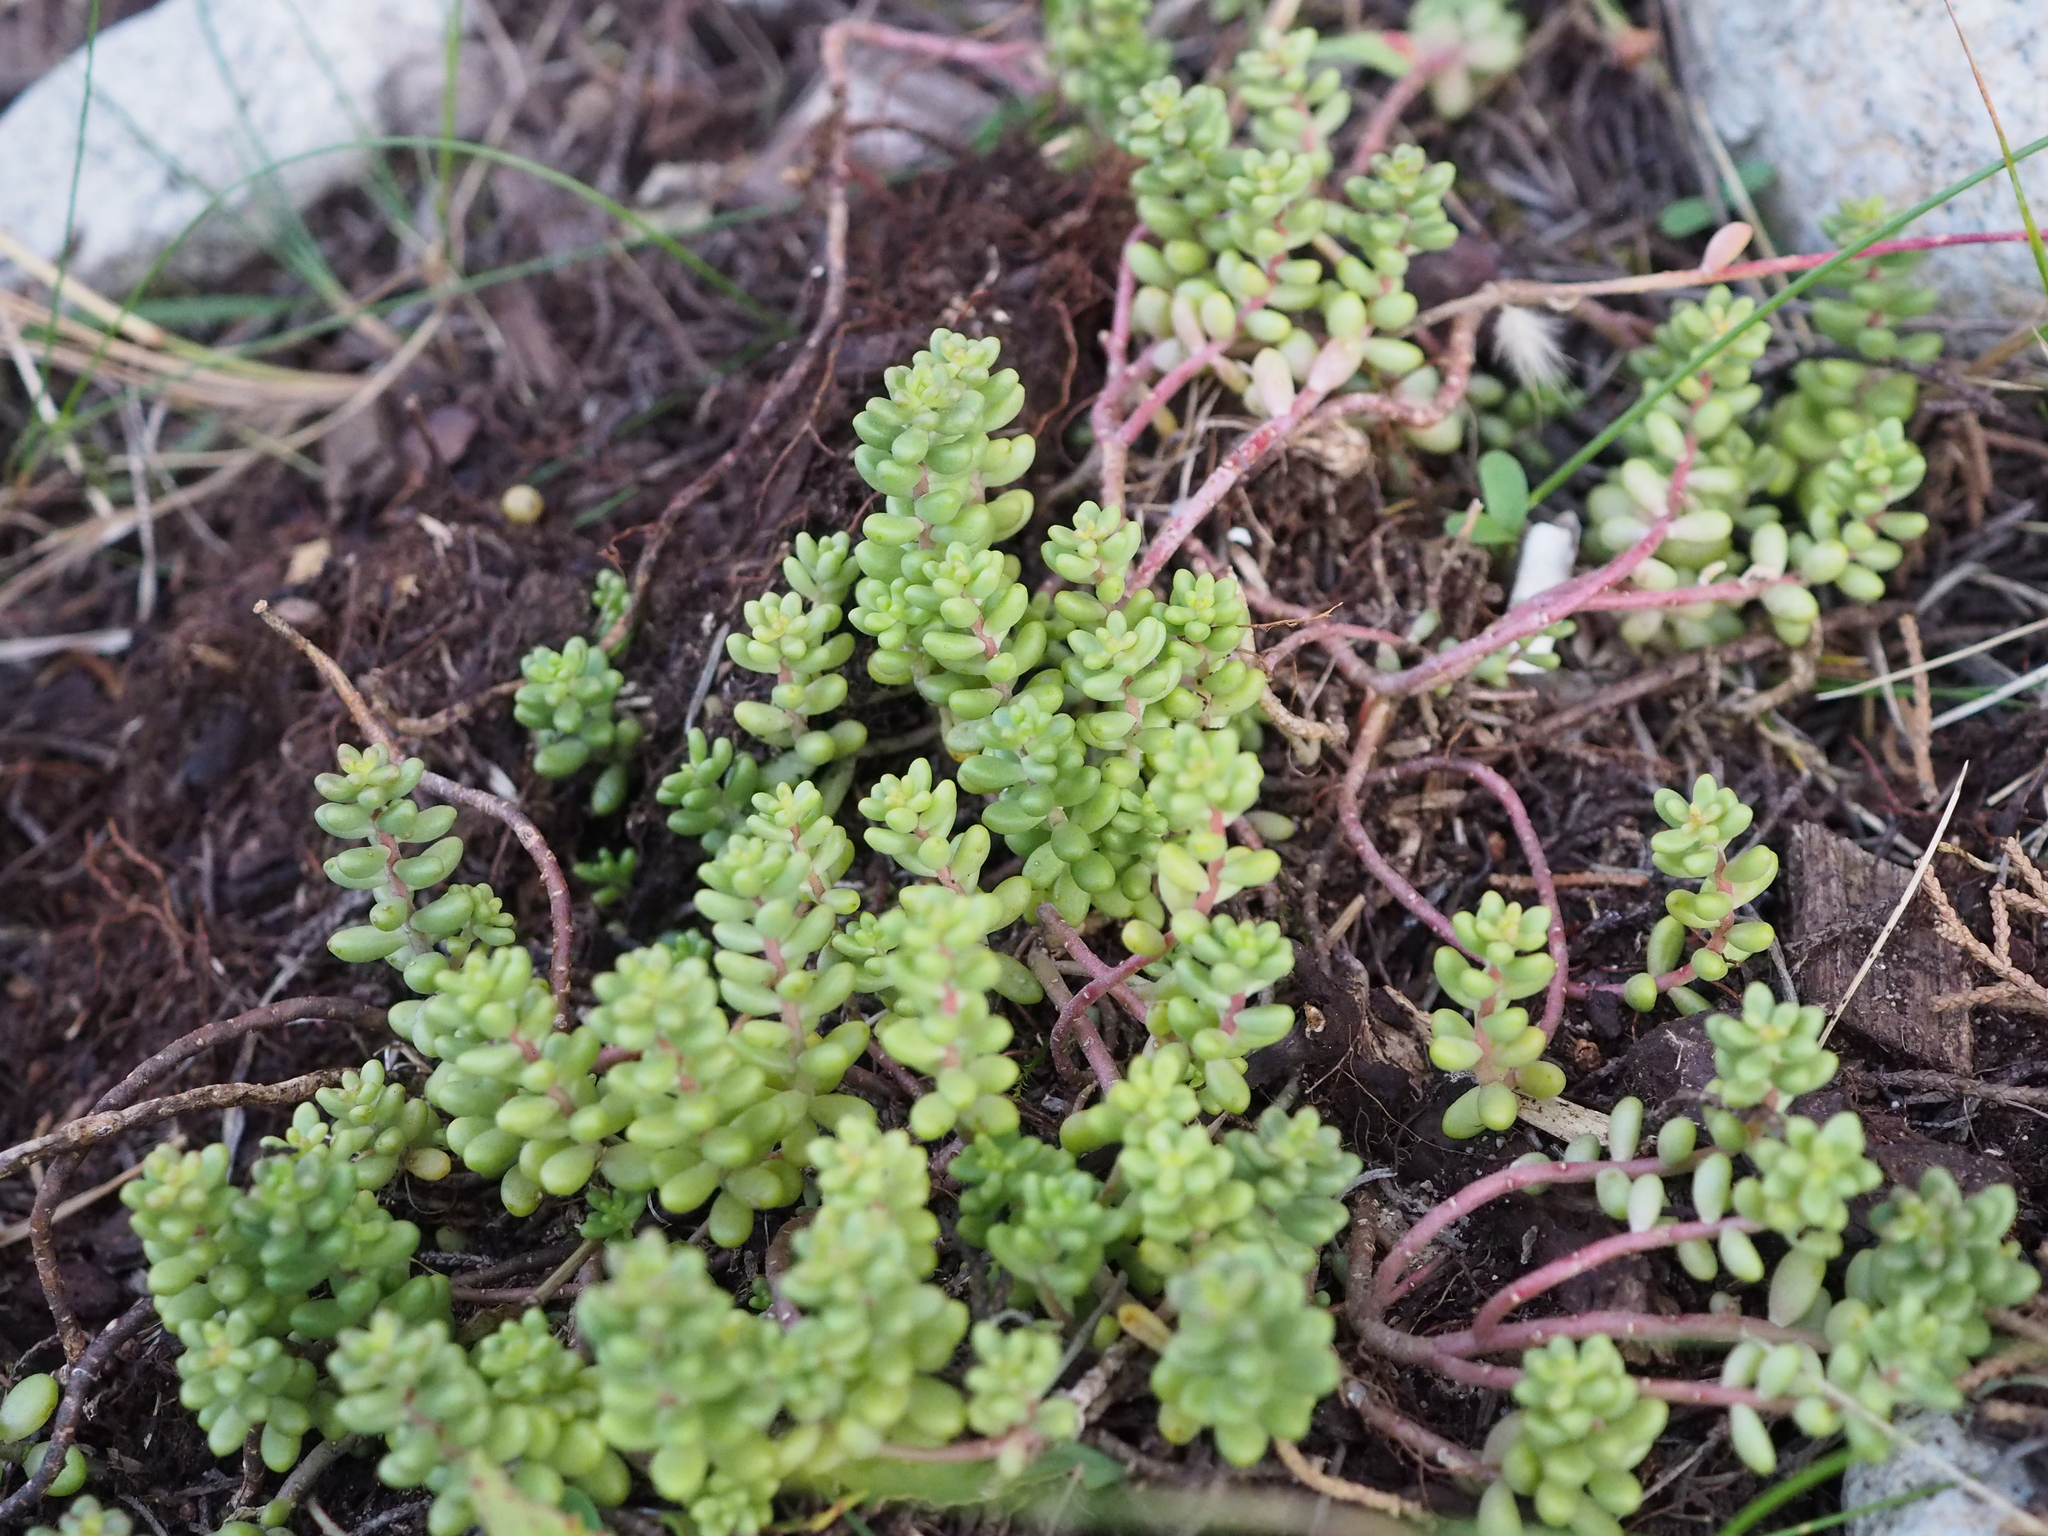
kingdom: Plantae
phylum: Tracheophyta
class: Magnoliopsida
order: Saxifragales
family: Crassulaceae
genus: Sedum
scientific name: Sedum album
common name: White stonecrop
